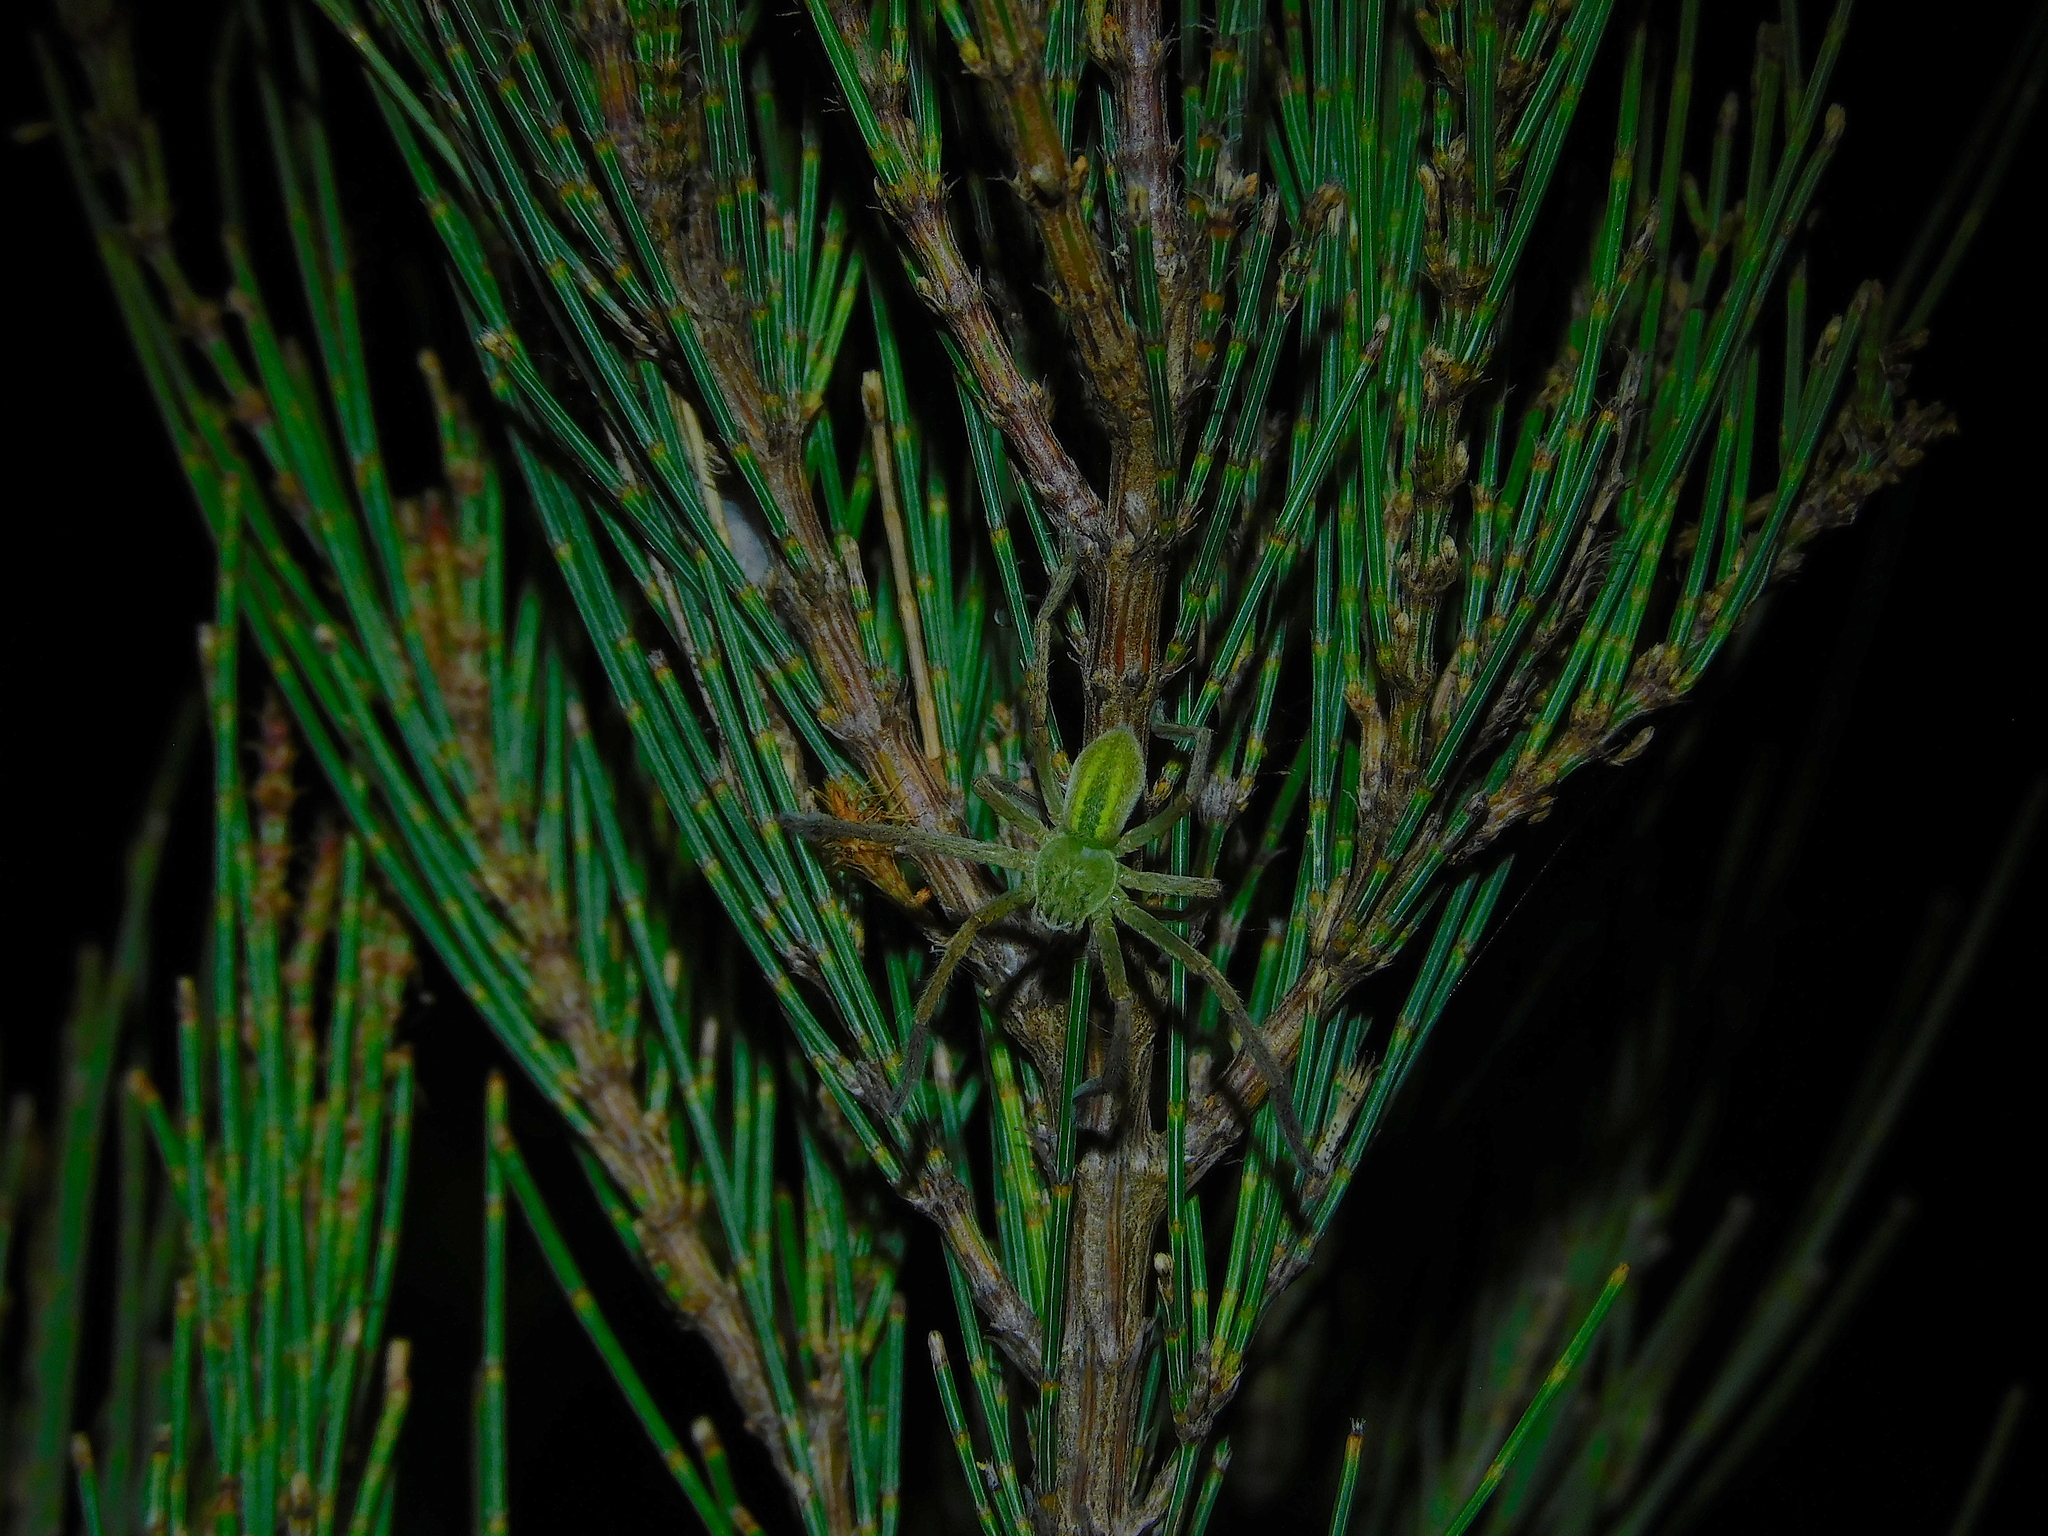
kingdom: Animalia
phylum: Arthropoda
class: Arachnida
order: Araneae
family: Sparassidae
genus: Neosparassus
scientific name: Neosparassus patellatus
